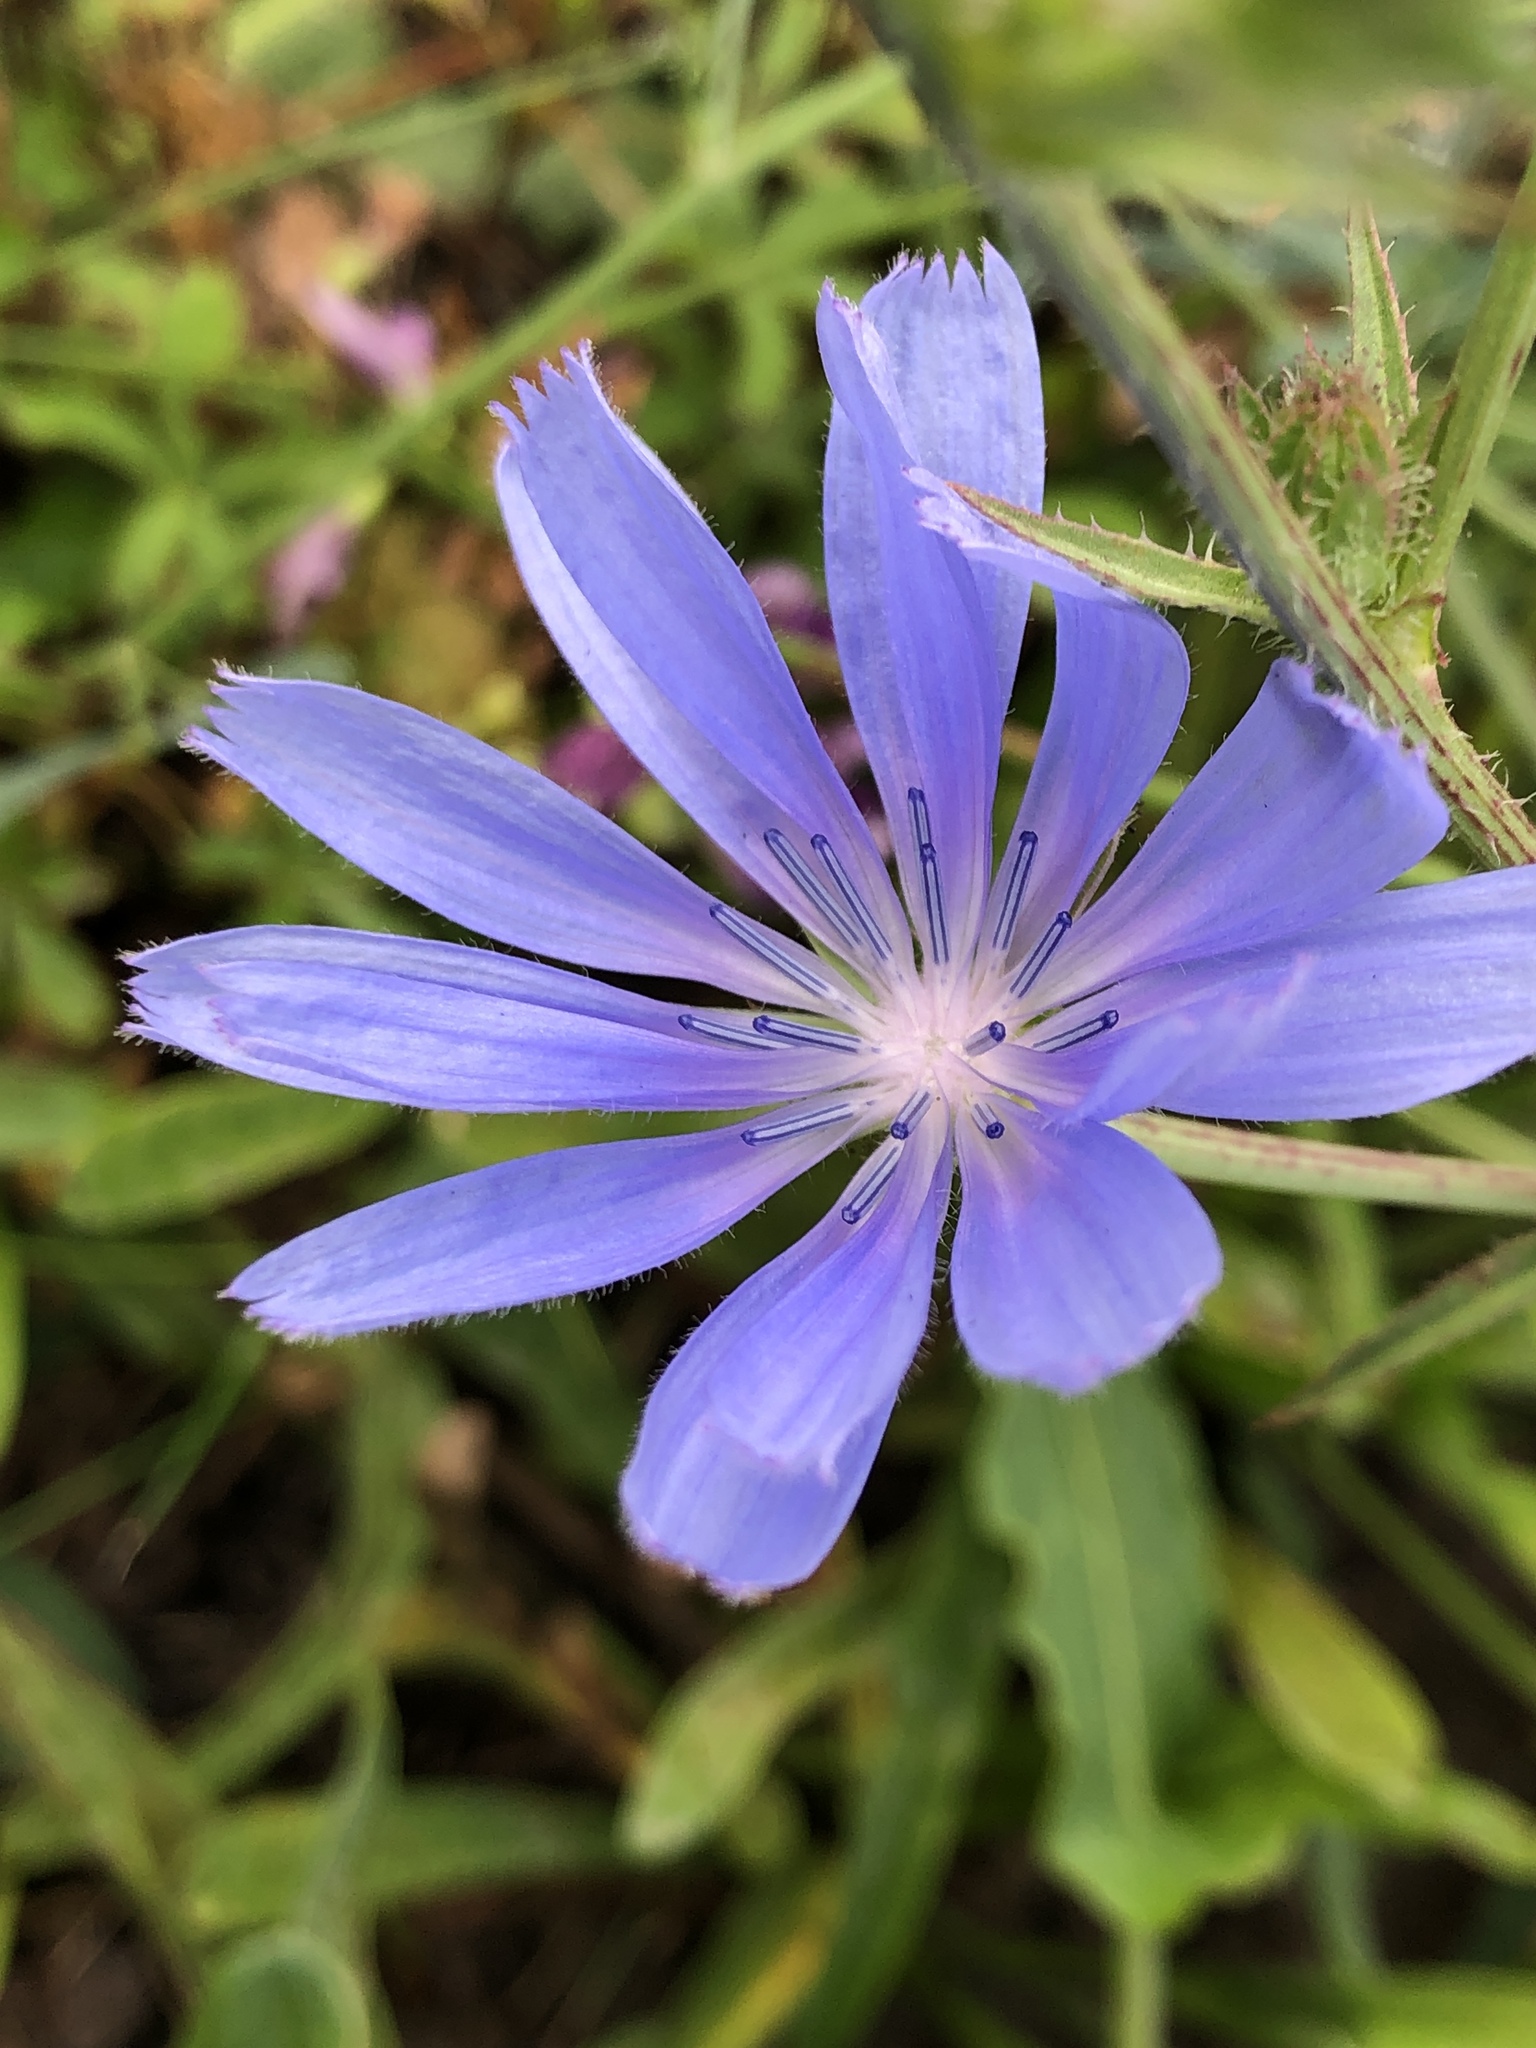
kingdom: Plantae
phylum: Tracheophyta
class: Magnoliopsida
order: Asterales
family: Asteraceae
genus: Cichorium
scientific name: Cichorium intybus
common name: Chicory
